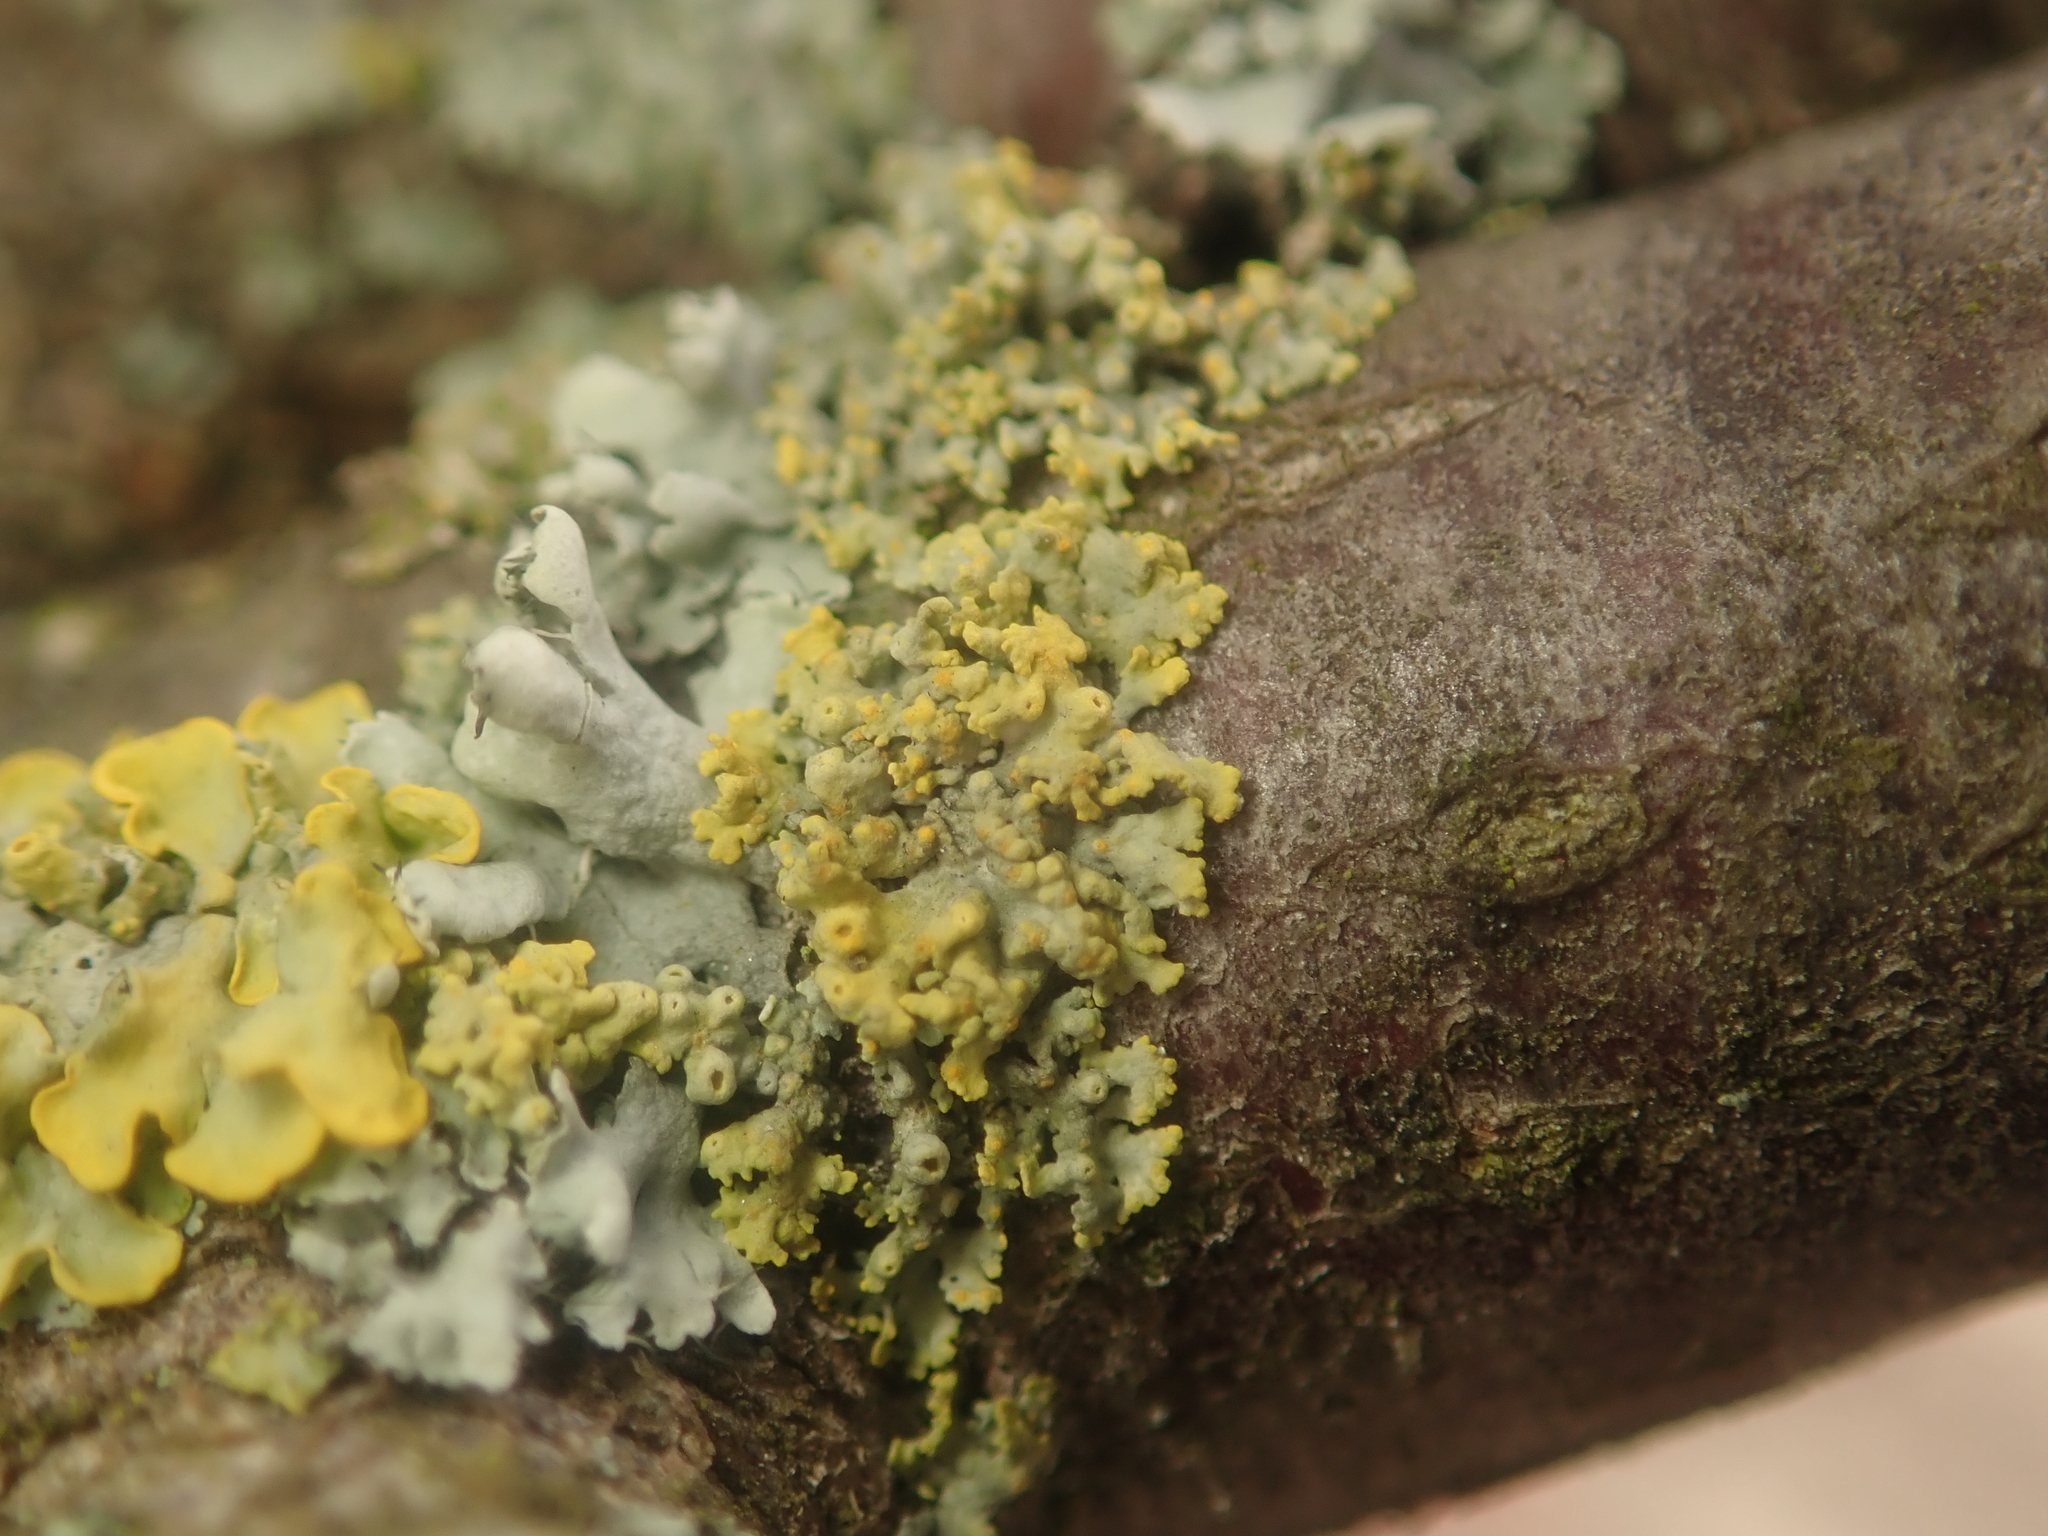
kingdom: Fungi
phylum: Ascomycota
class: Lecanoromycetes
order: Teloschistales
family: Teloschistaceae
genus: Polycauliona
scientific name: Polycauliona polycarpa
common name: Pin-cushion sunburst lichen
